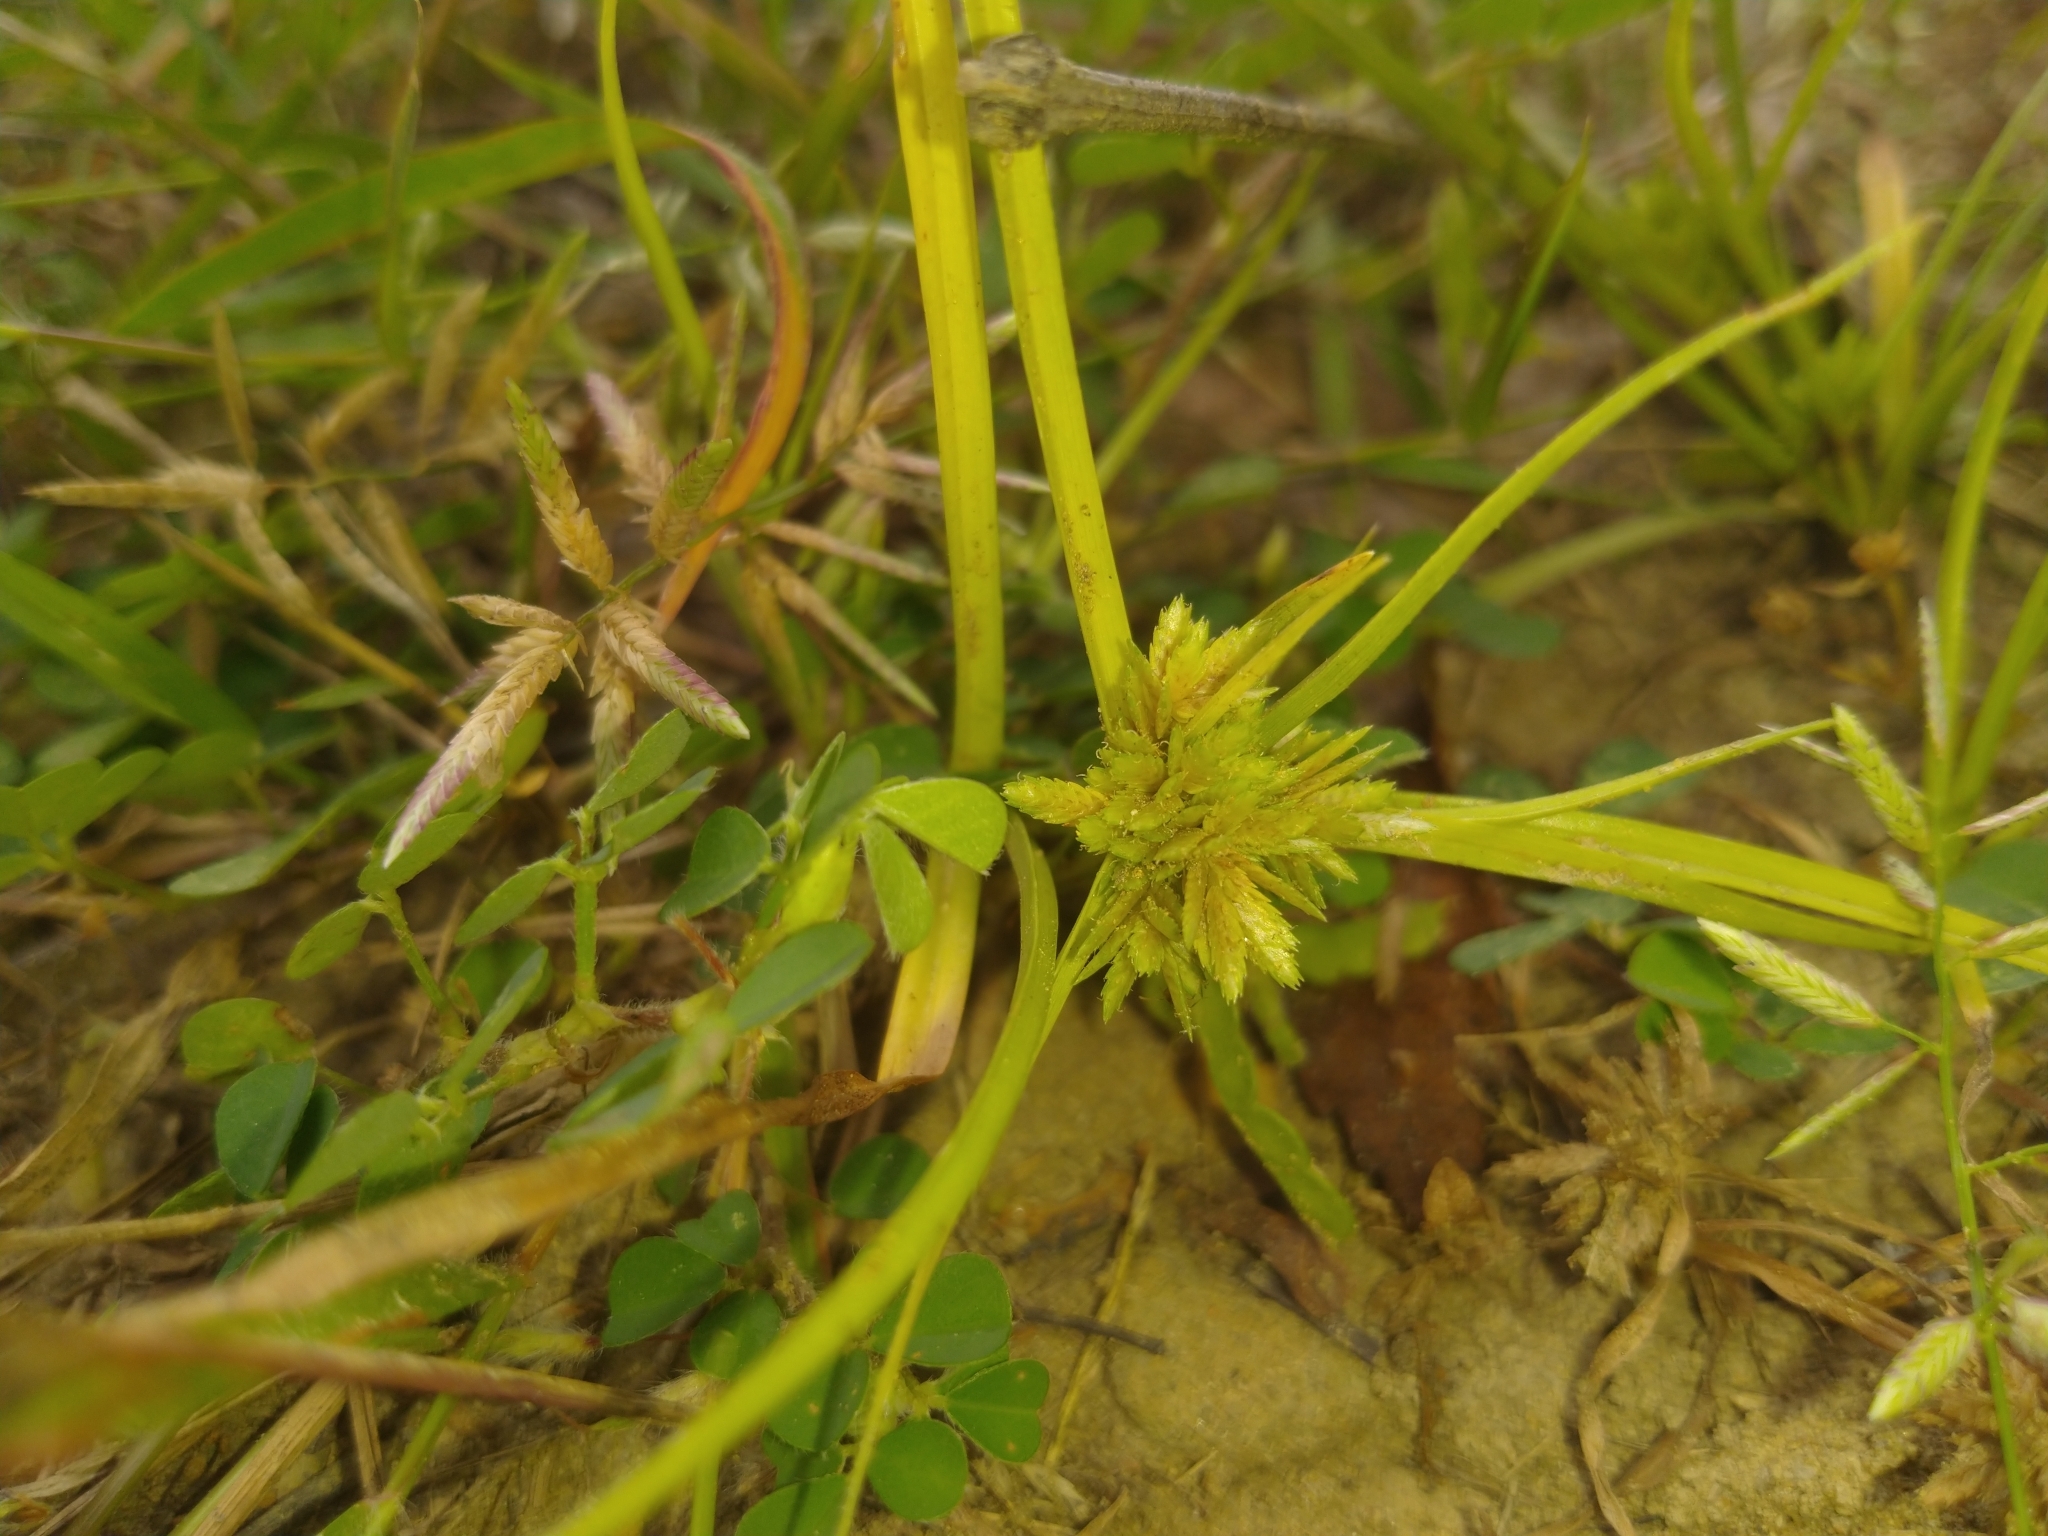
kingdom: Plantae
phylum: Tracheophyta
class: Liliopsida
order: Poales
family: Cyperaceae
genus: Cyperus
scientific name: Cyperus pumilus
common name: Low flatsedge
